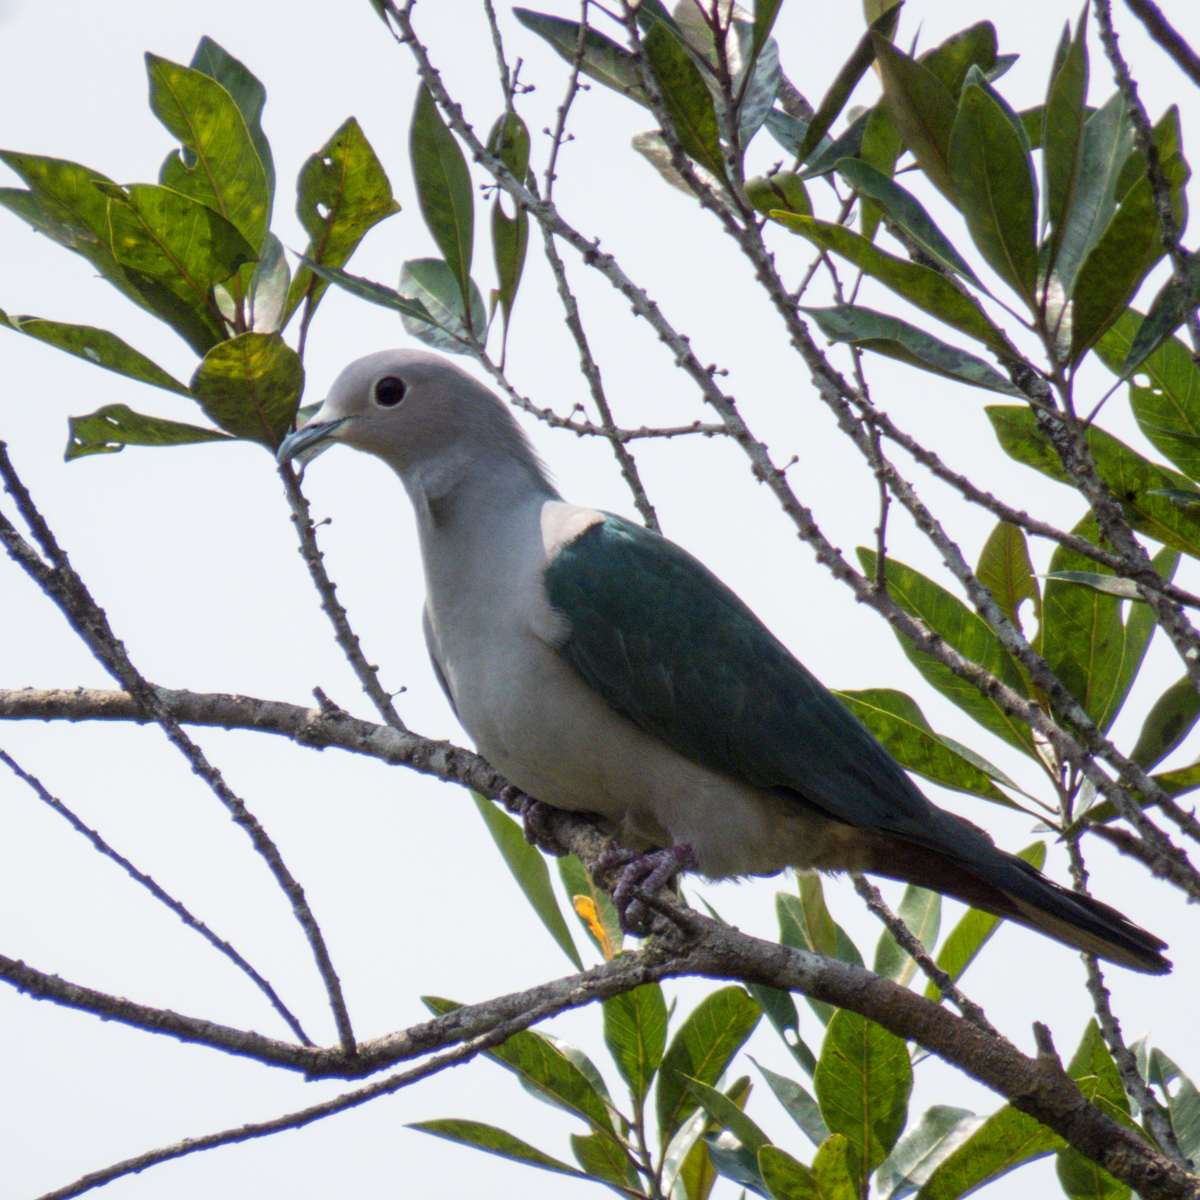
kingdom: Animalia
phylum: Chordata
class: Aves
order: Columbiformes
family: Columbidae
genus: Ducula
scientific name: Ducula aenea
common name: Green imperial pigeon
